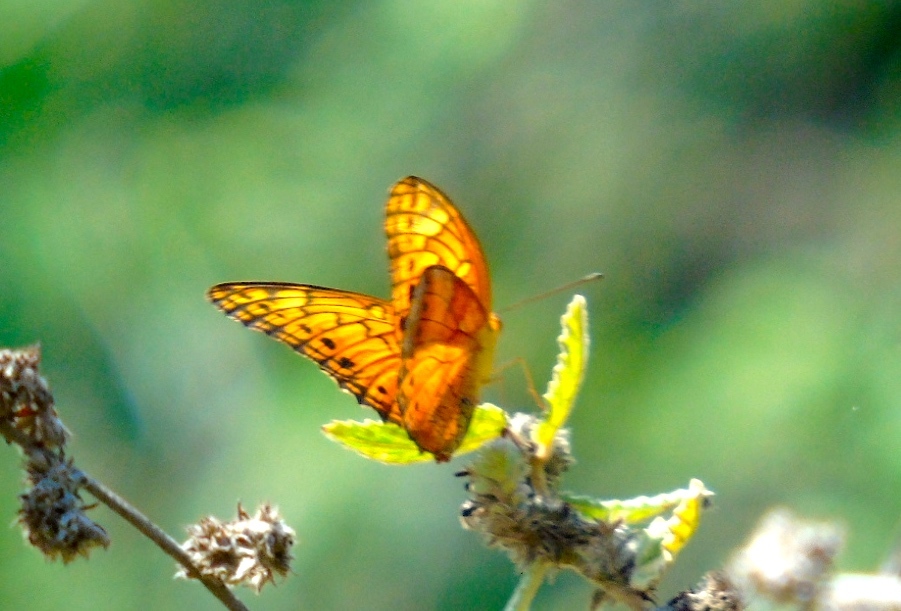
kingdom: Animalia
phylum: Arthropoda
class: Insecta
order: Lepidoptera
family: Nymphalidae
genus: Euptoieta
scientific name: Euptoieta hegesia
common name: Mexican fritillary
